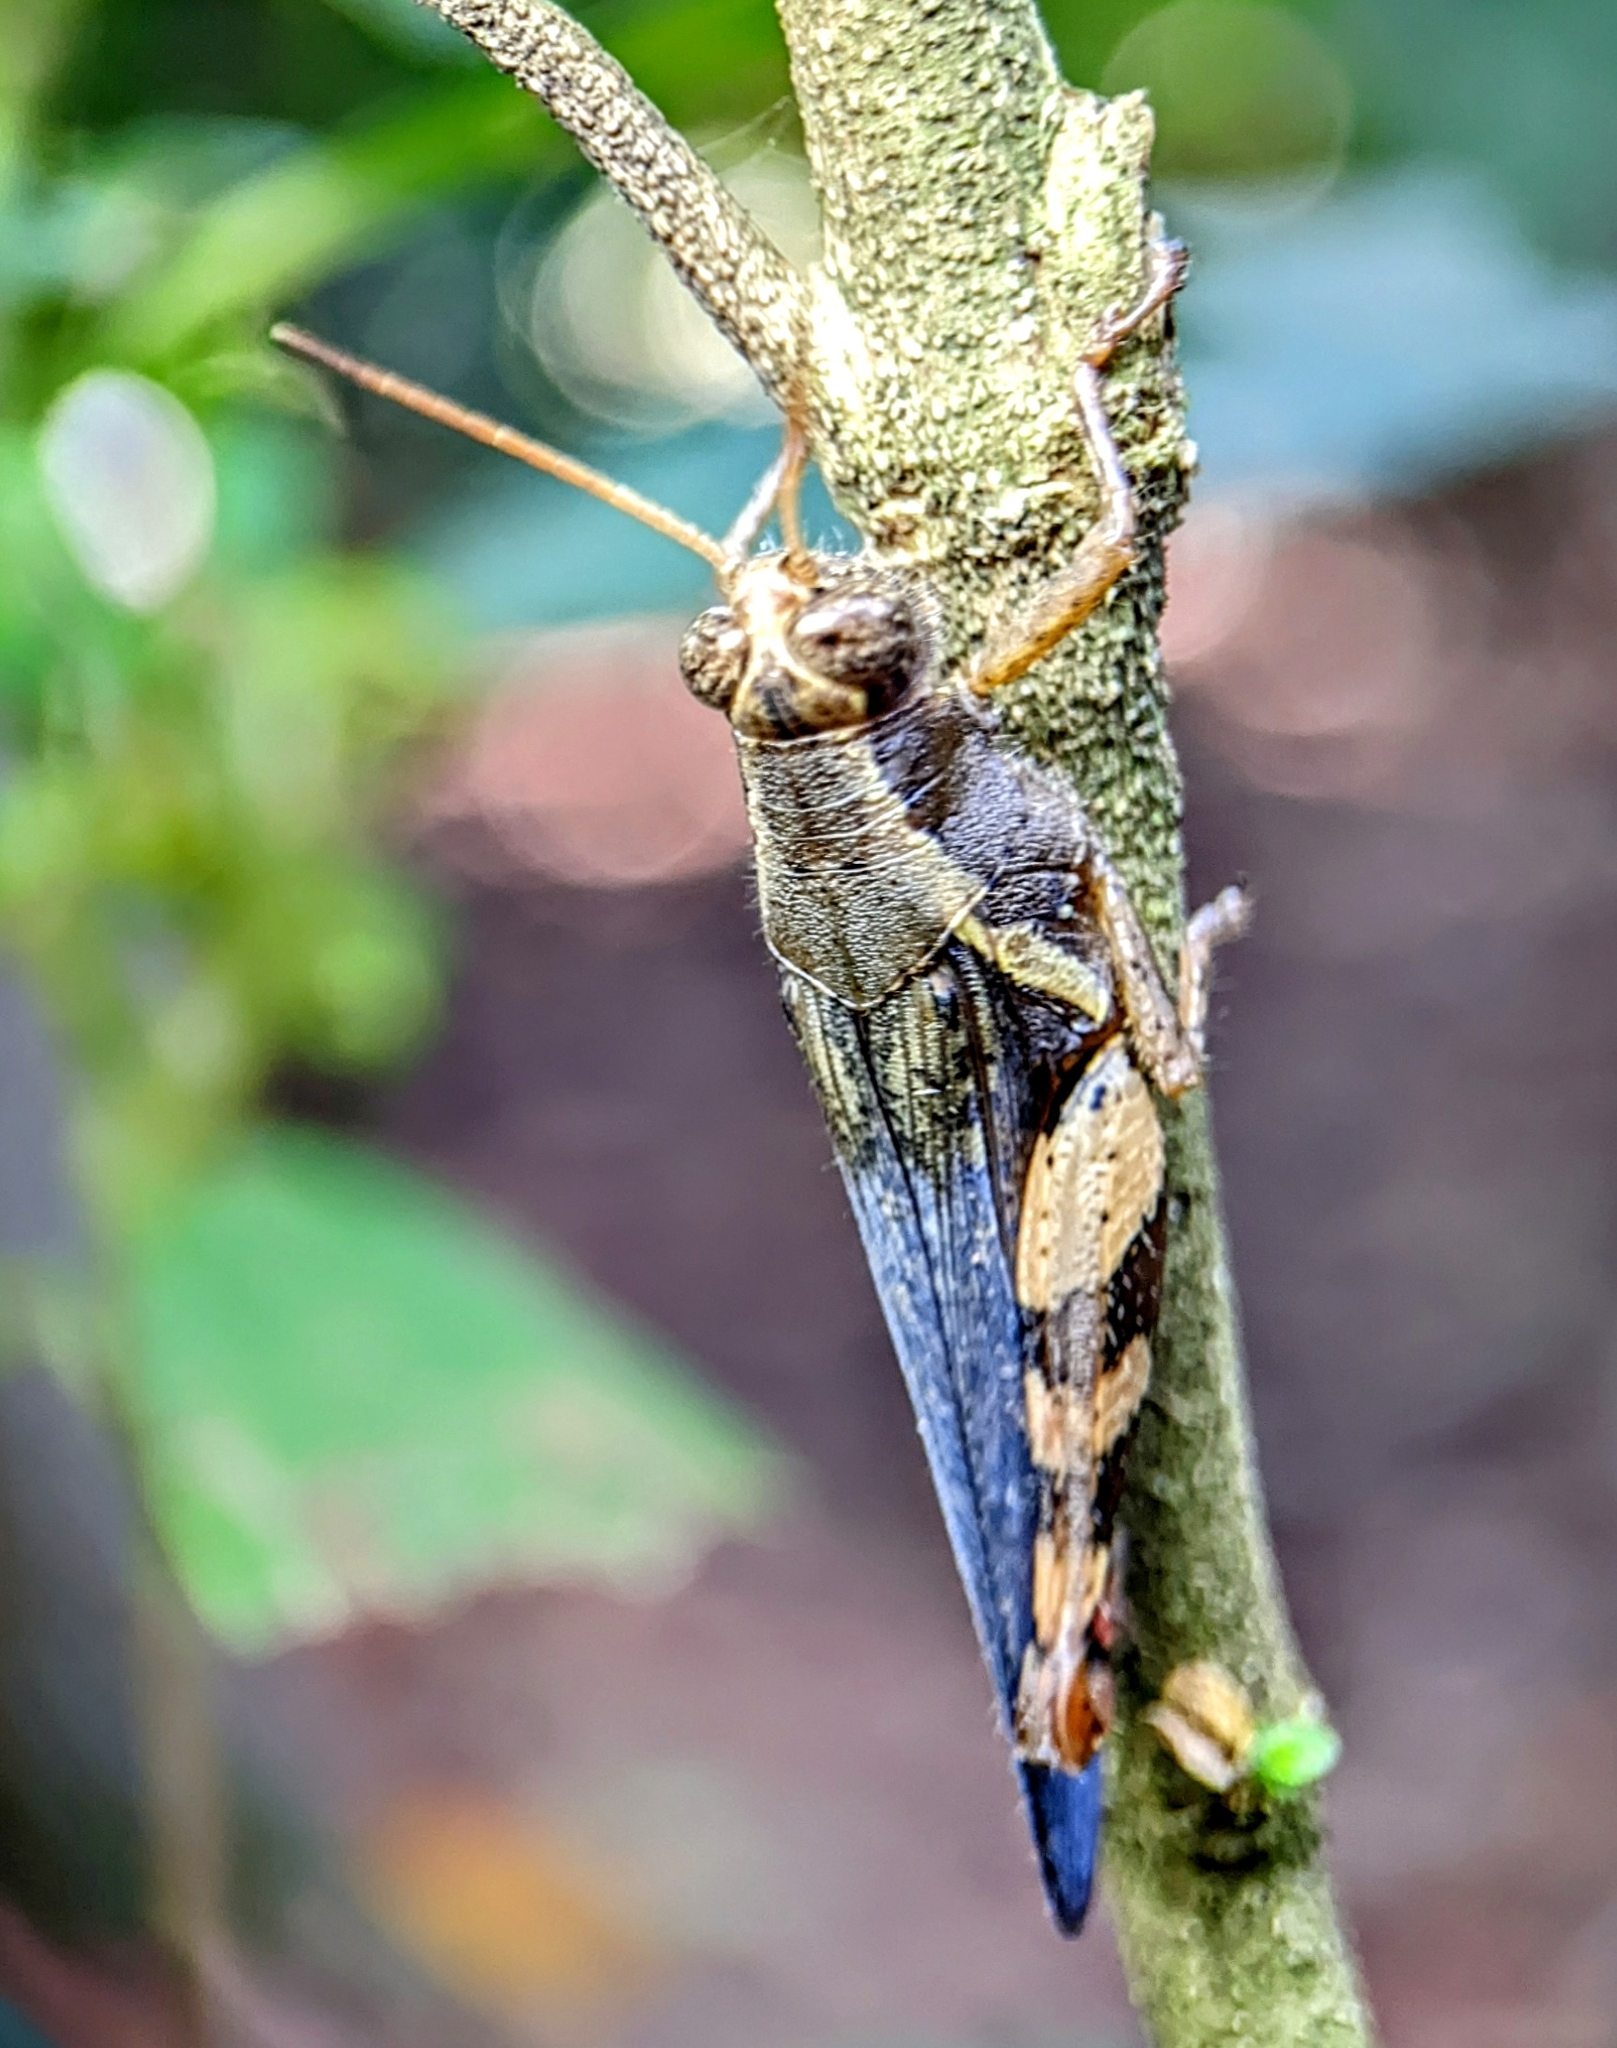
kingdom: Animalia
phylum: Arthropoda
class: Insecta
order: Orthoptera
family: Acrididae
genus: Xenocatantops
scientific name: Xenocatantops humile
